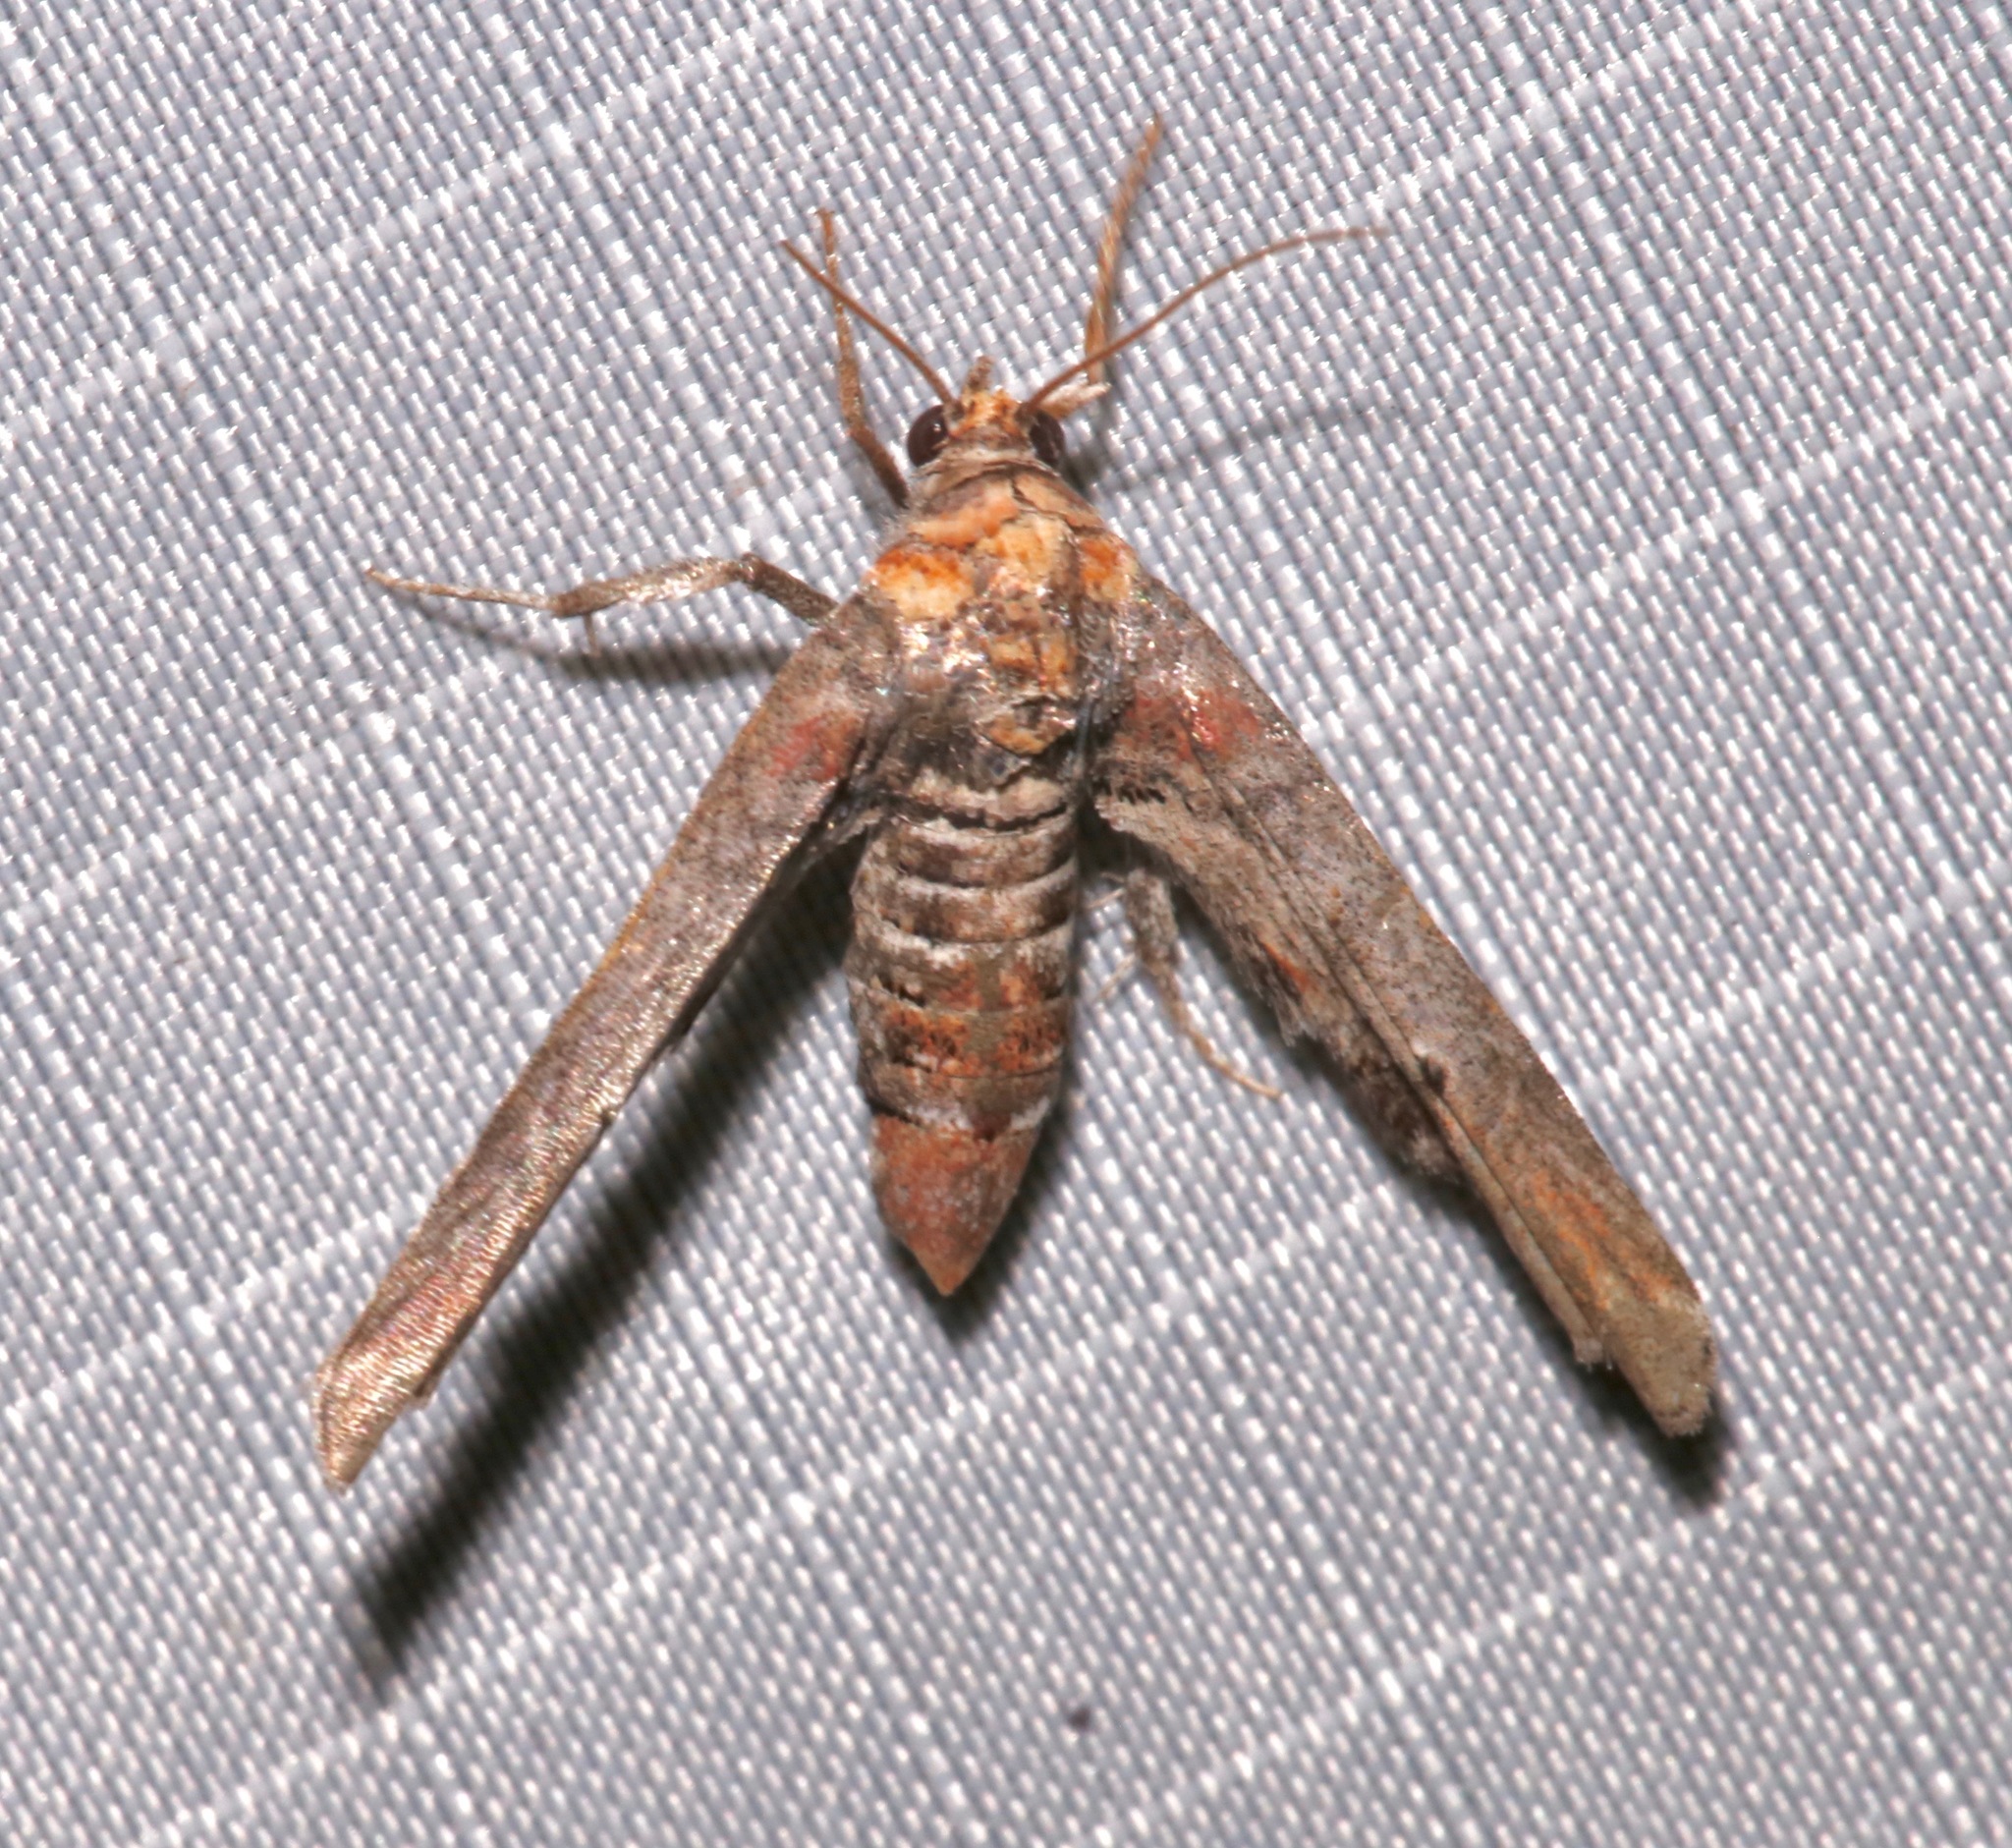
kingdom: Animalia
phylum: Arthropoda
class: Insecta
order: Lepidoptera
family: Euteliidae
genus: Marathyssa
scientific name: Marathyssa inficita
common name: Dark marathyssa moth
